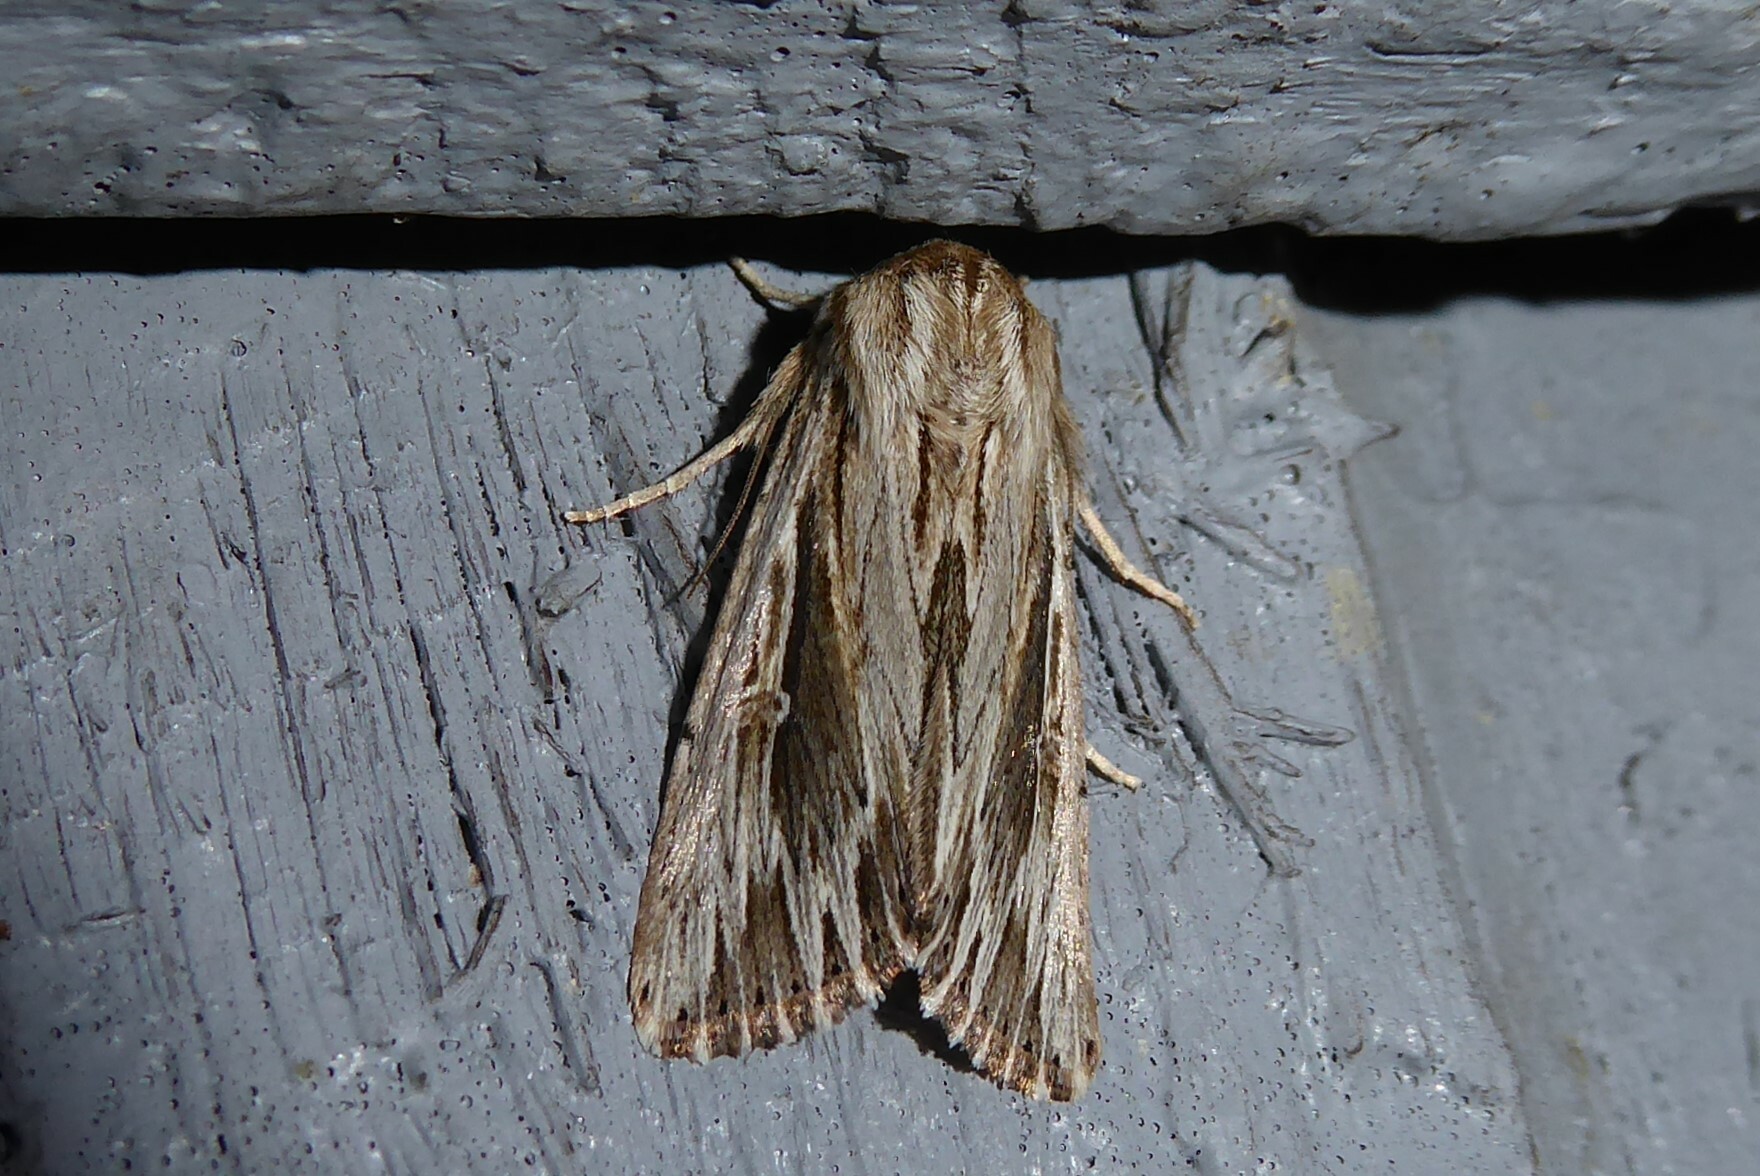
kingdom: Animalia
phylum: Arthropoda
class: Insecta
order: Lepidoptera
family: Noctuidae
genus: Persectania
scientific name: Persectania aversa
